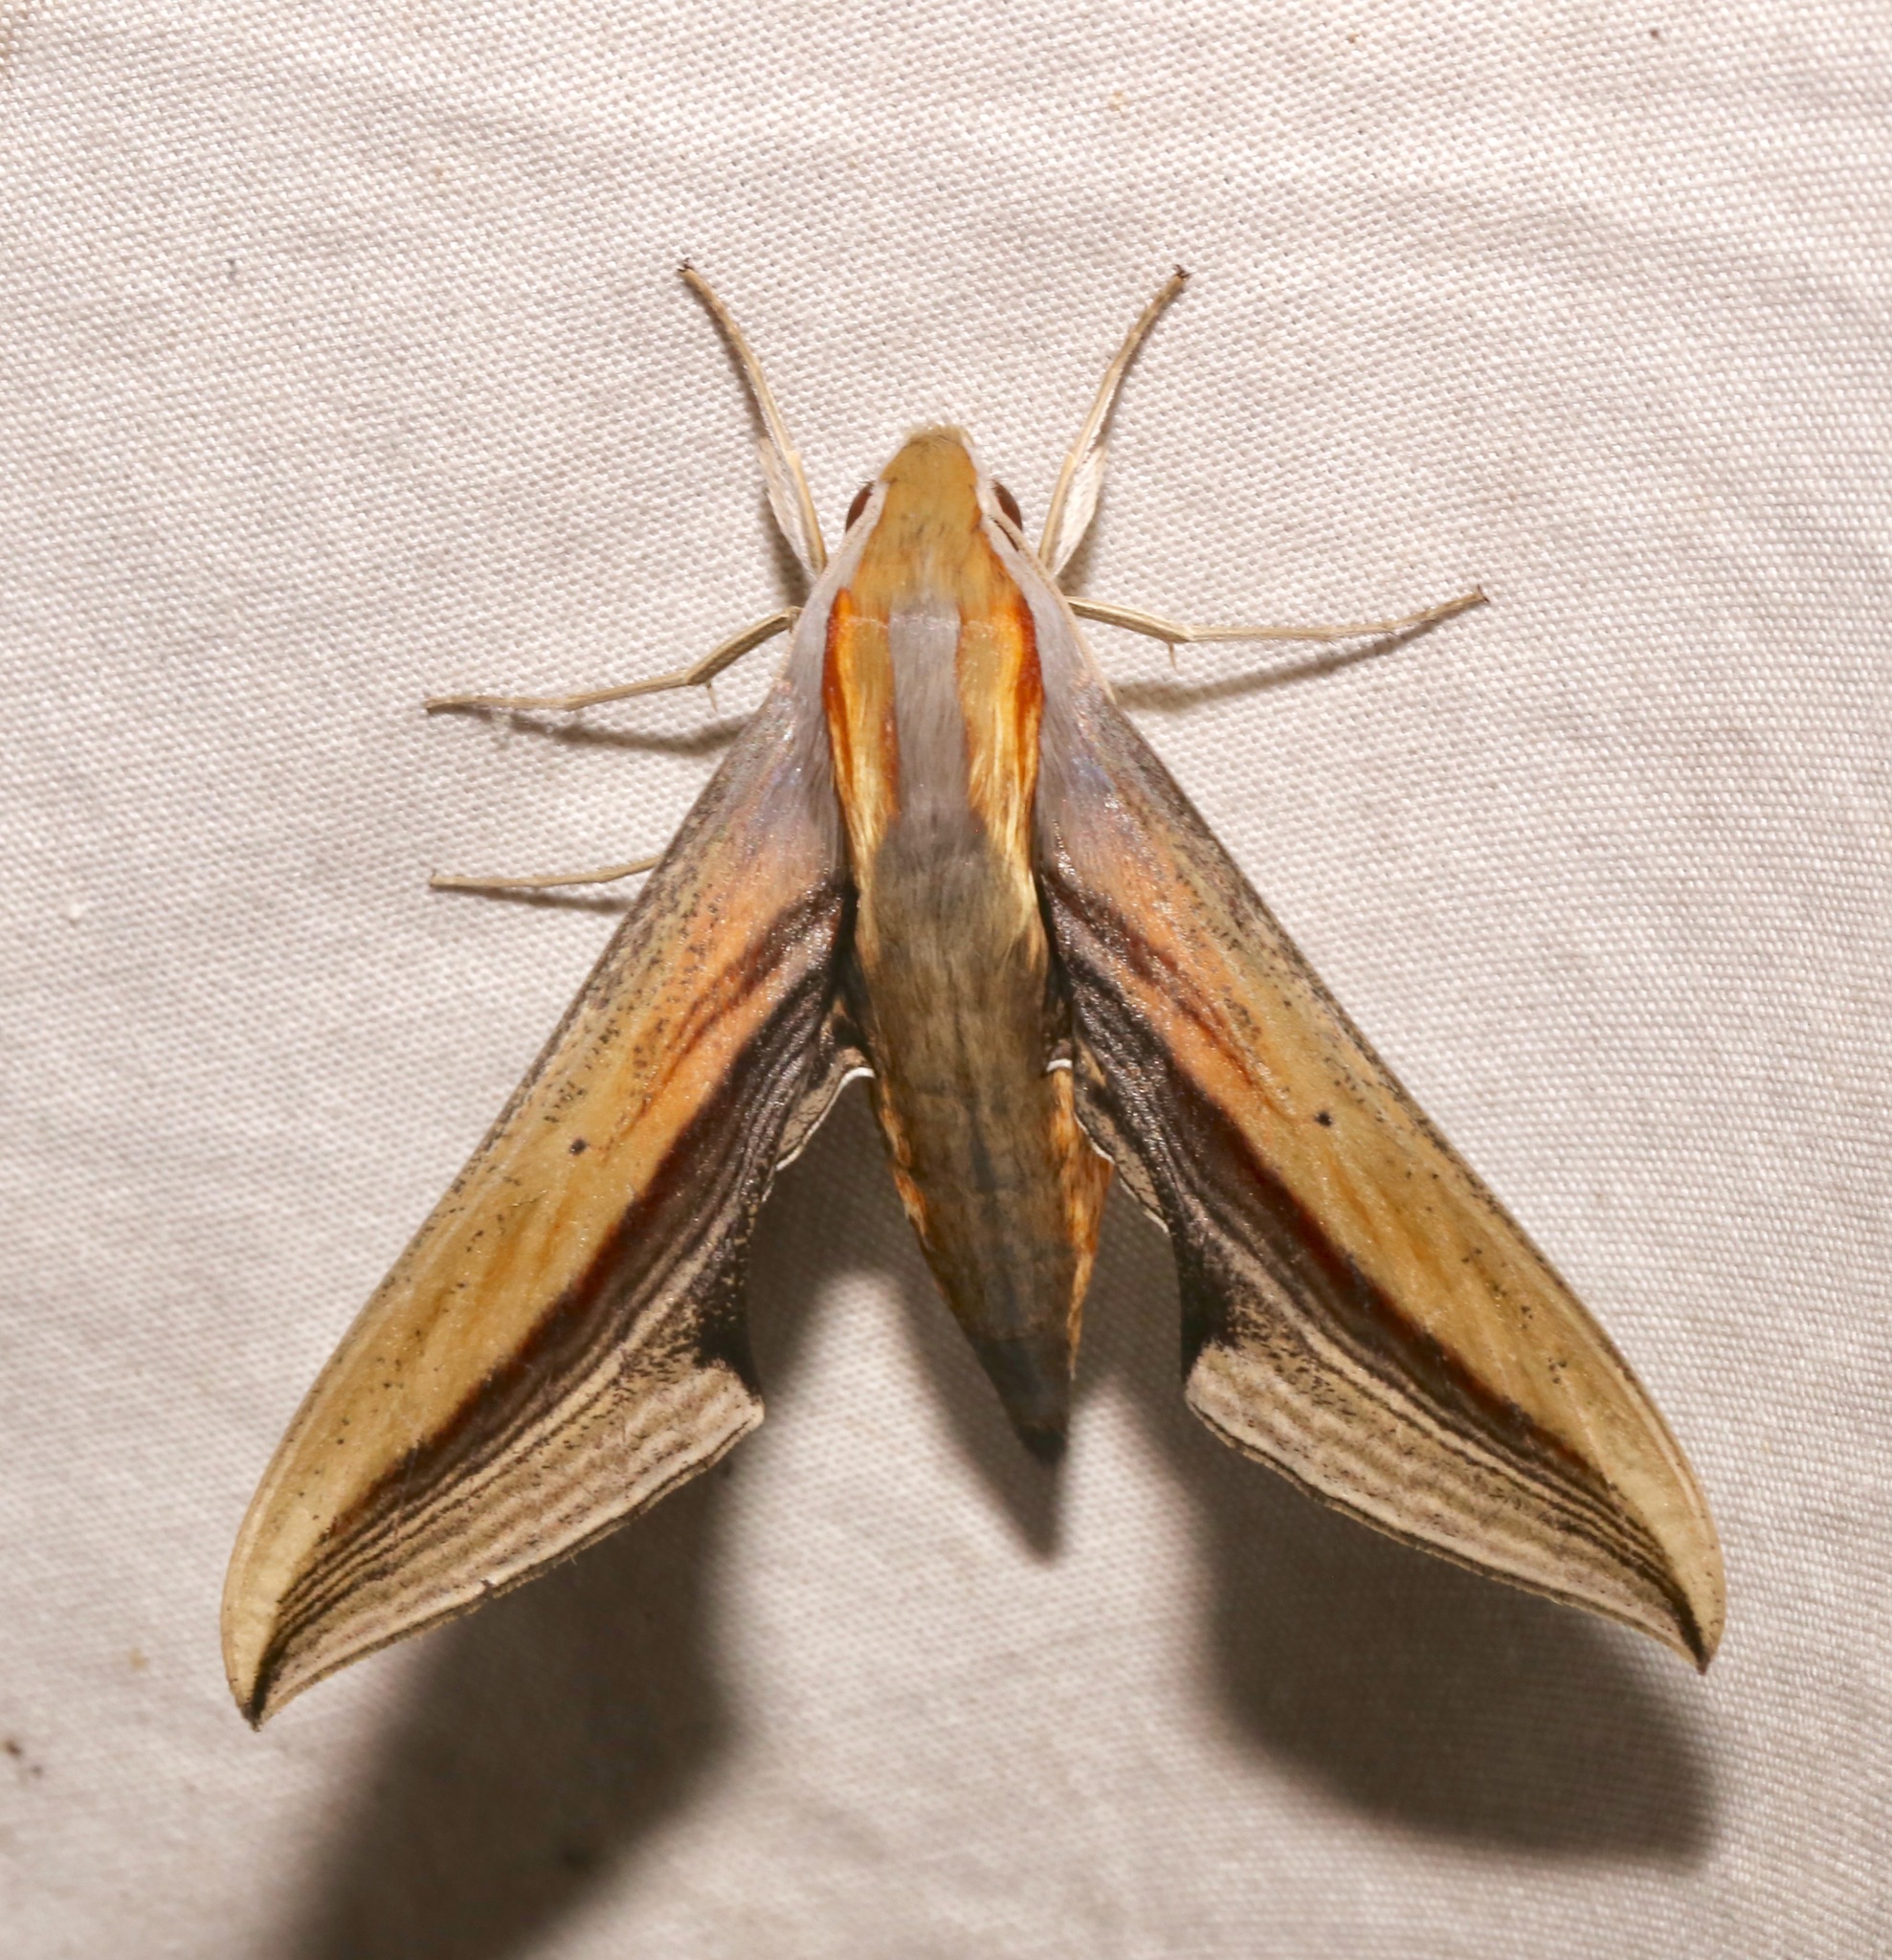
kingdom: Animalia
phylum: Arthropoda
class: Insecta
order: Lepidoptera
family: Sphingidae
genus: Xylophanes
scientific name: Xylophanes falco
